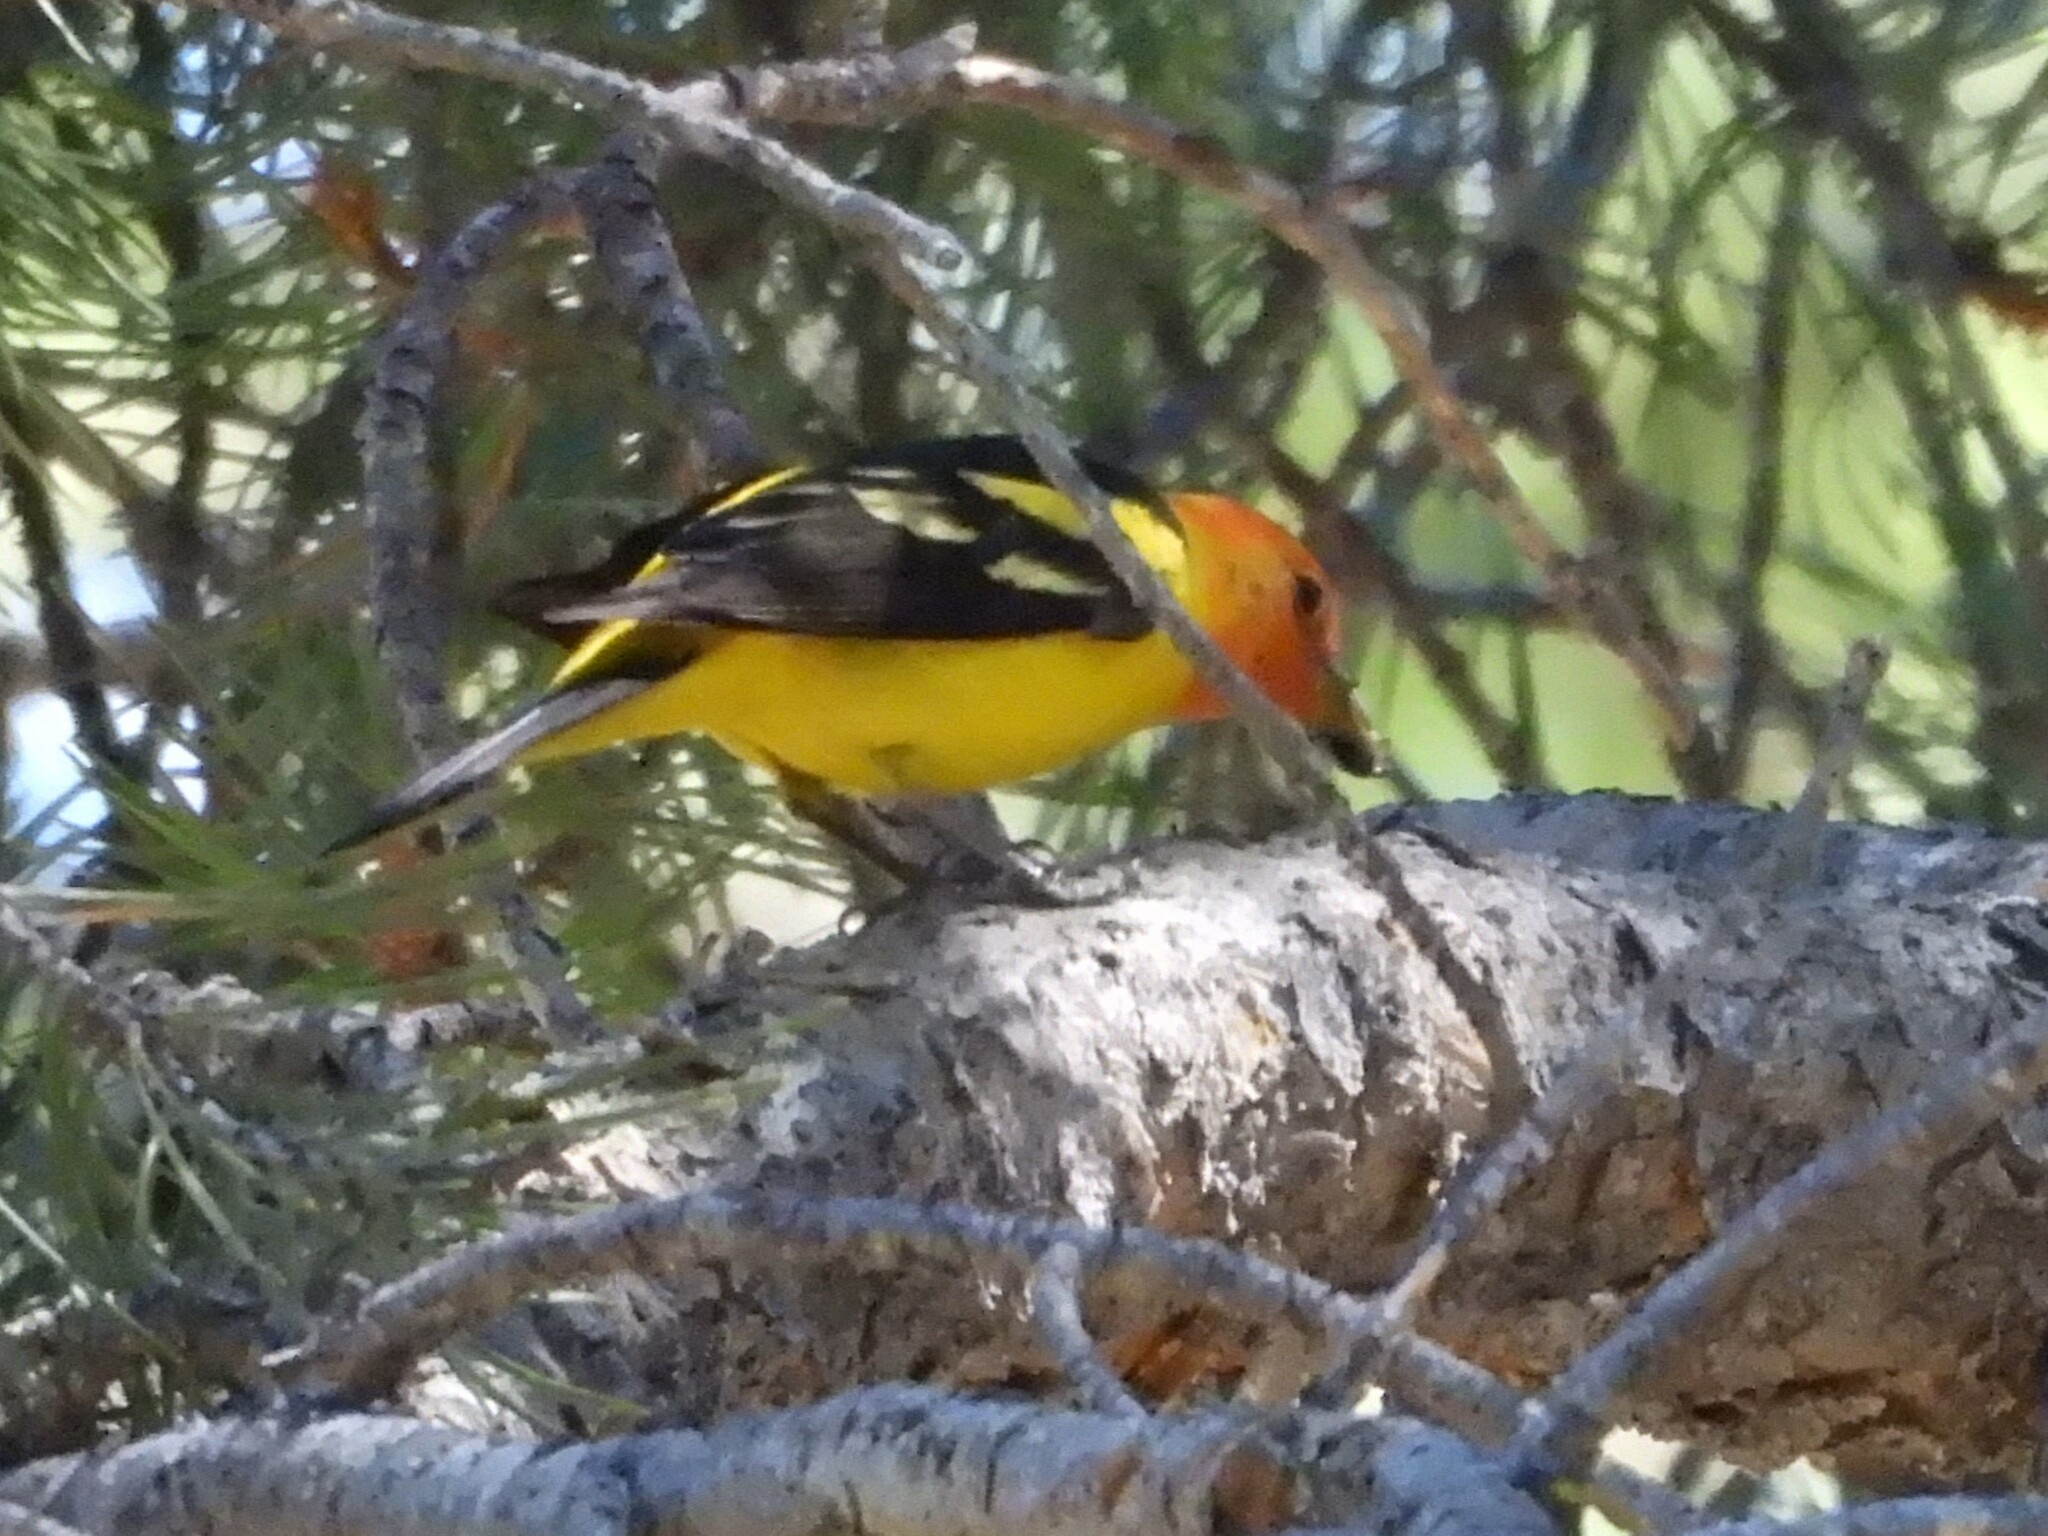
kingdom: Animalia
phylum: Chordata
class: Aves
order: Passeriformes
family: Cardinalidae
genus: Piranga
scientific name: Piranga ludoviciana
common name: Western tanager
